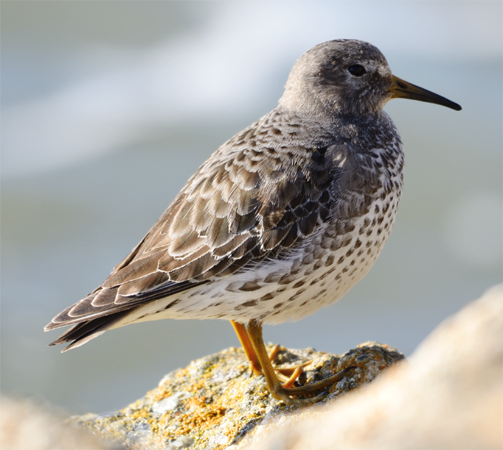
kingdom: Animalia
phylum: Chordata
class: Aves
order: Charadriiformes
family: Scolopacidae
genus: Calidris
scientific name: Calidris ptilocnemis
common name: Rock sandpiper
